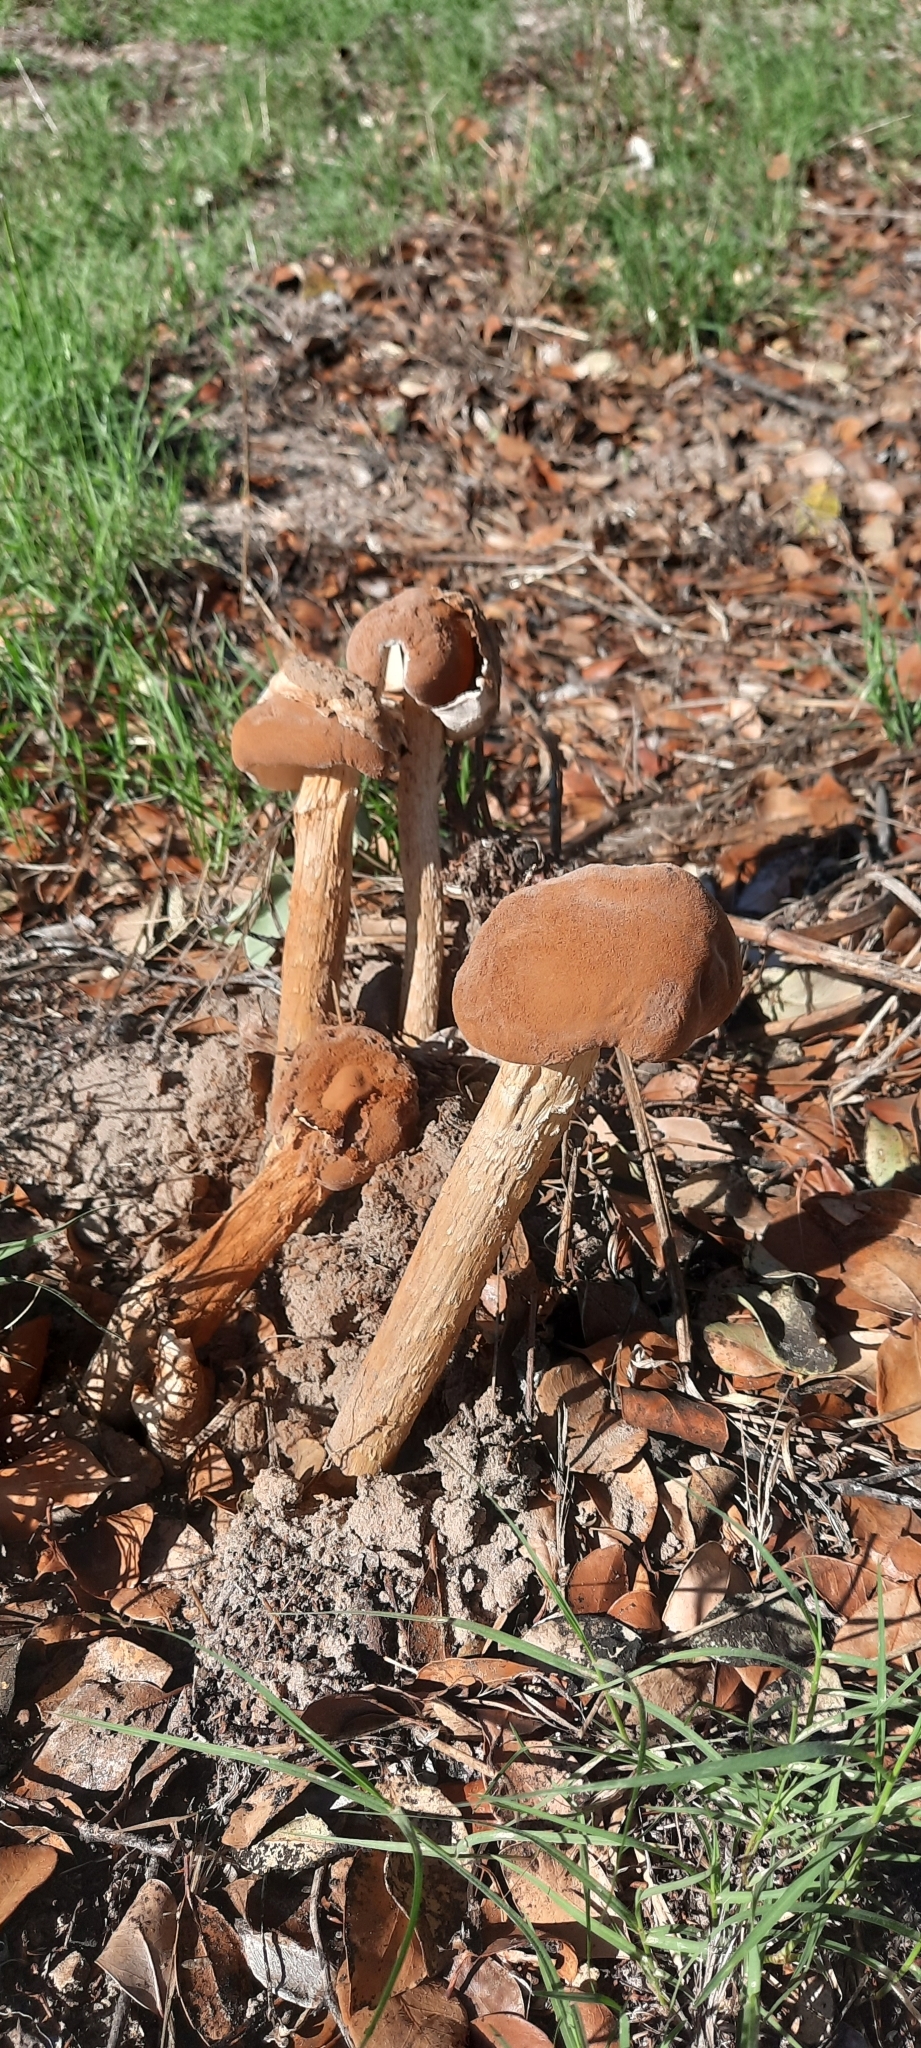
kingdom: Fungi
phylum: Basidiomycota
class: Agaricomycetes
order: Agaricales
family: Agaricaceae
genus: Battarrea
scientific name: Battarrea phalloides
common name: Sandy stiltball
